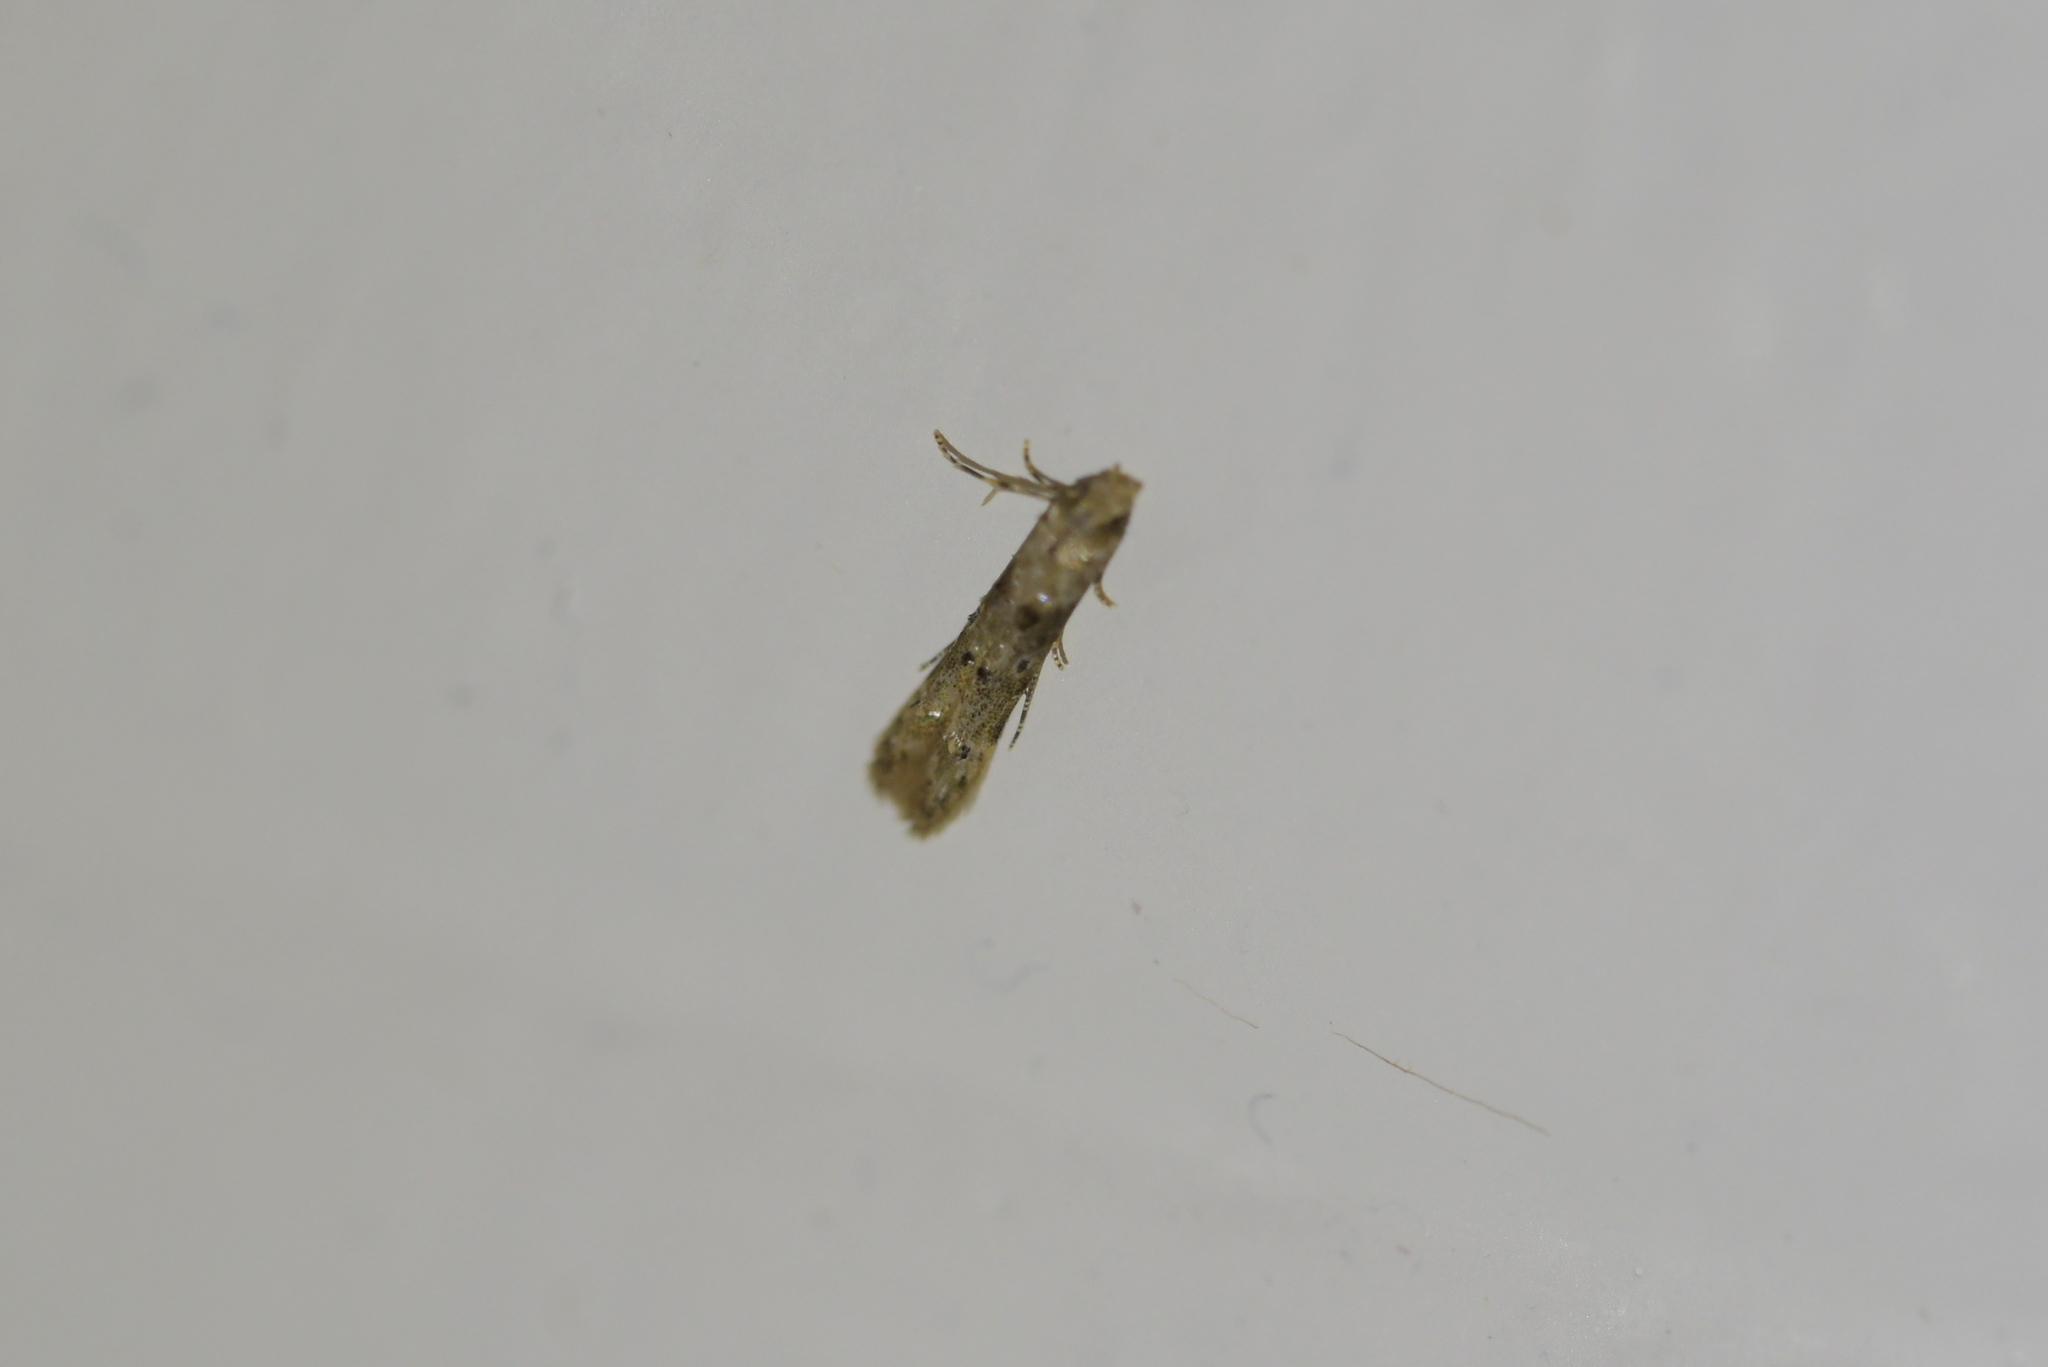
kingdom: Animalia
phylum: Arthropoda
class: Insecta
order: Lepidoptera
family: Elachistidae
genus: Microcolona
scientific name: Microcolona limodes
